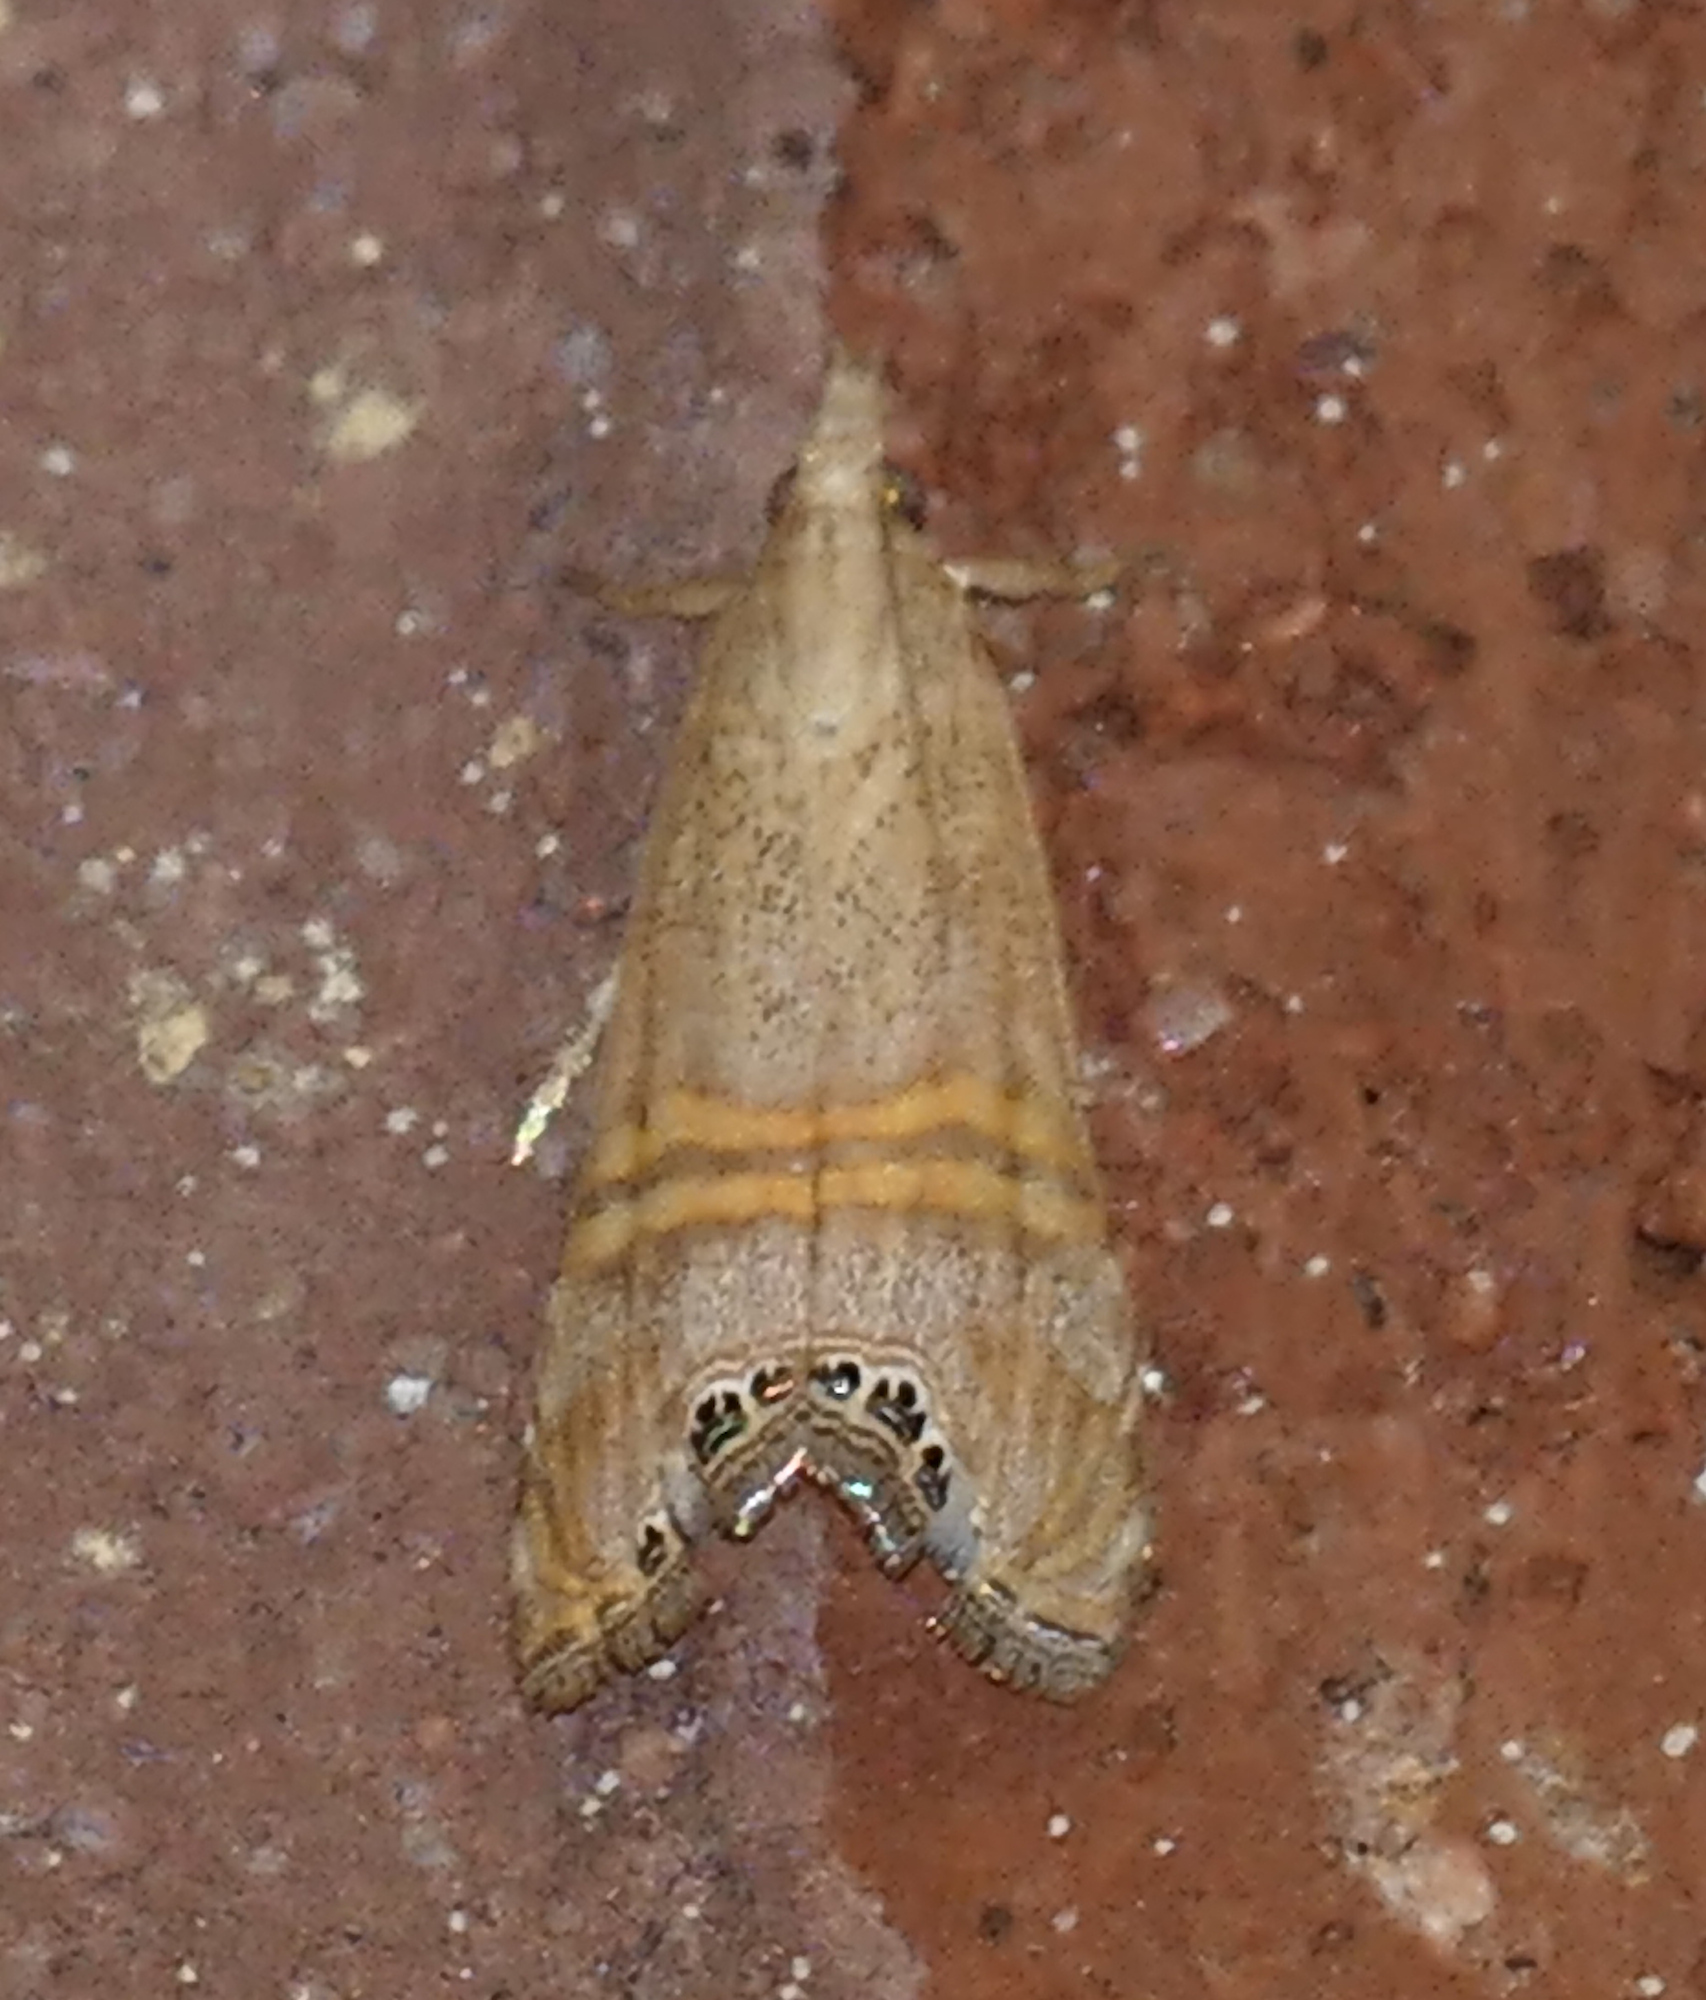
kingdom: Animalia
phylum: Arthropoda
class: Insecta
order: Lepidoptera
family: Crambidae
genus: Euchromius
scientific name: Euchromius ocellea
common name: Necklace veneer moth
